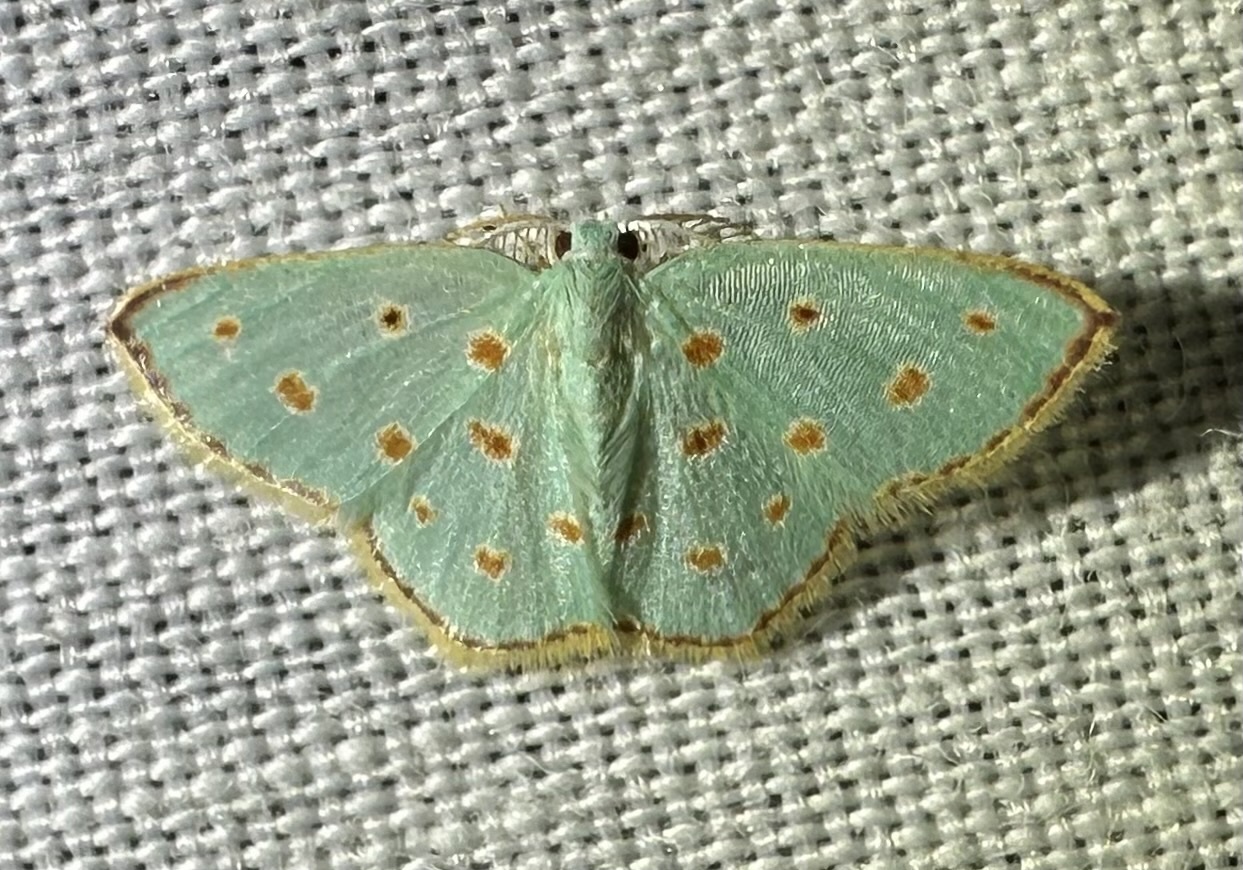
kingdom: Animalia
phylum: Arthropoda
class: Insecta
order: Lepidoptera
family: Geometridae
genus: Comostolopsis
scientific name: Comostolopsis stillata
